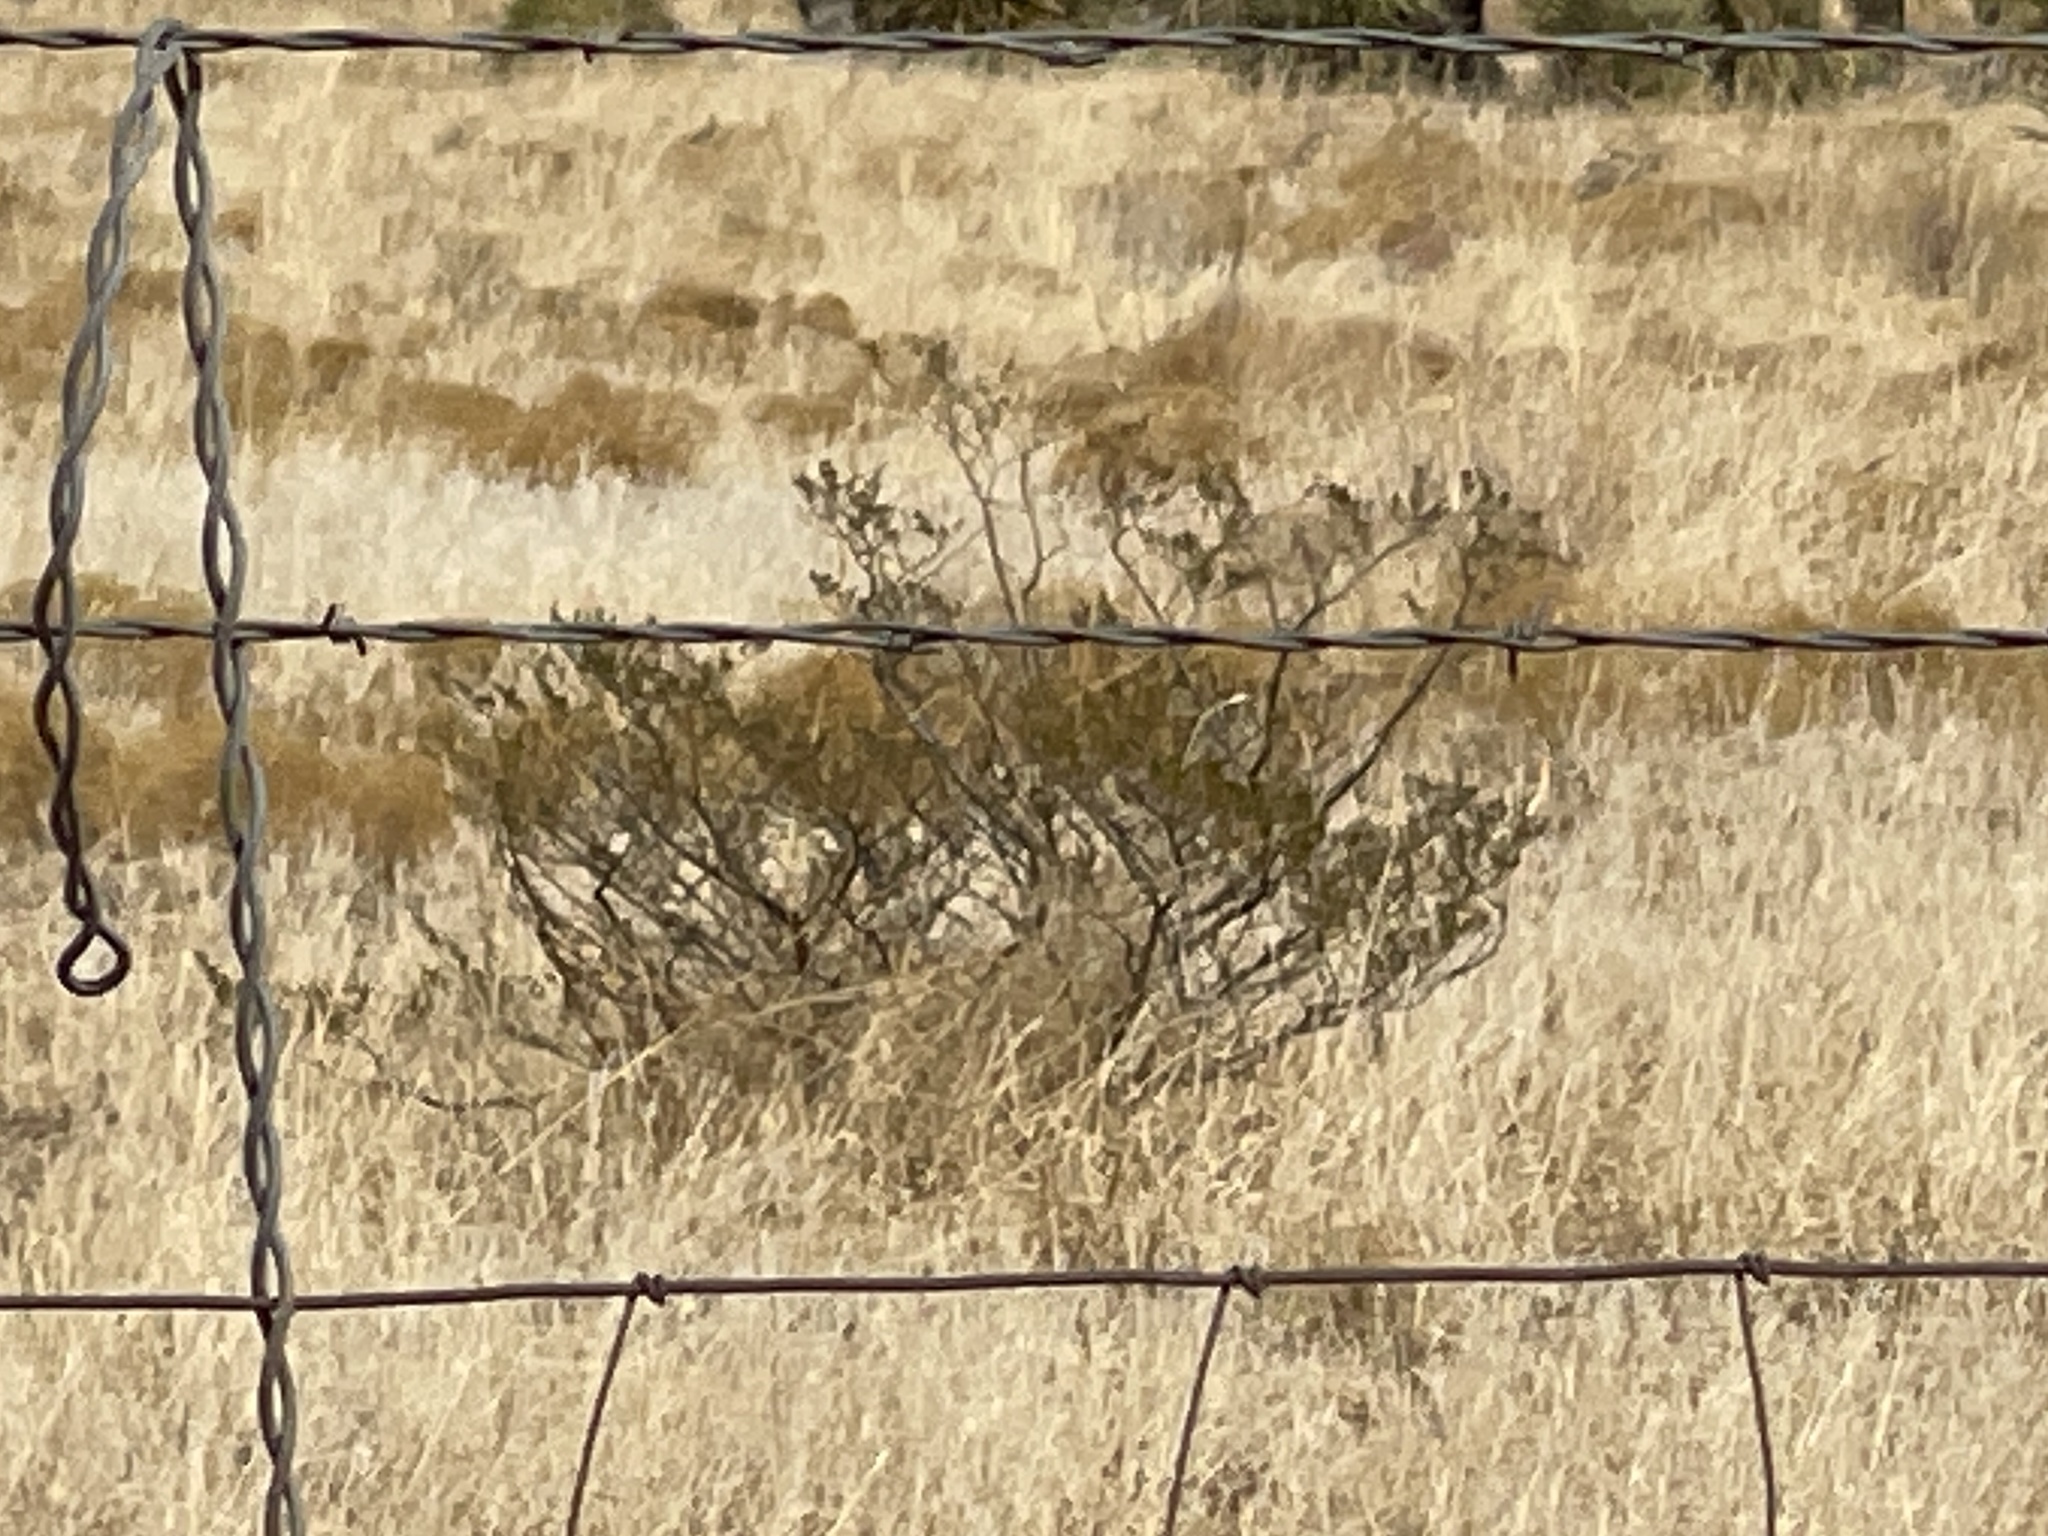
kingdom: Plantae
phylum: Tracheophyta
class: Magnoliopsida
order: Zygophyllales
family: Zygophyllaceae
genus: Larrea
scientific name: Larrea tridentata
